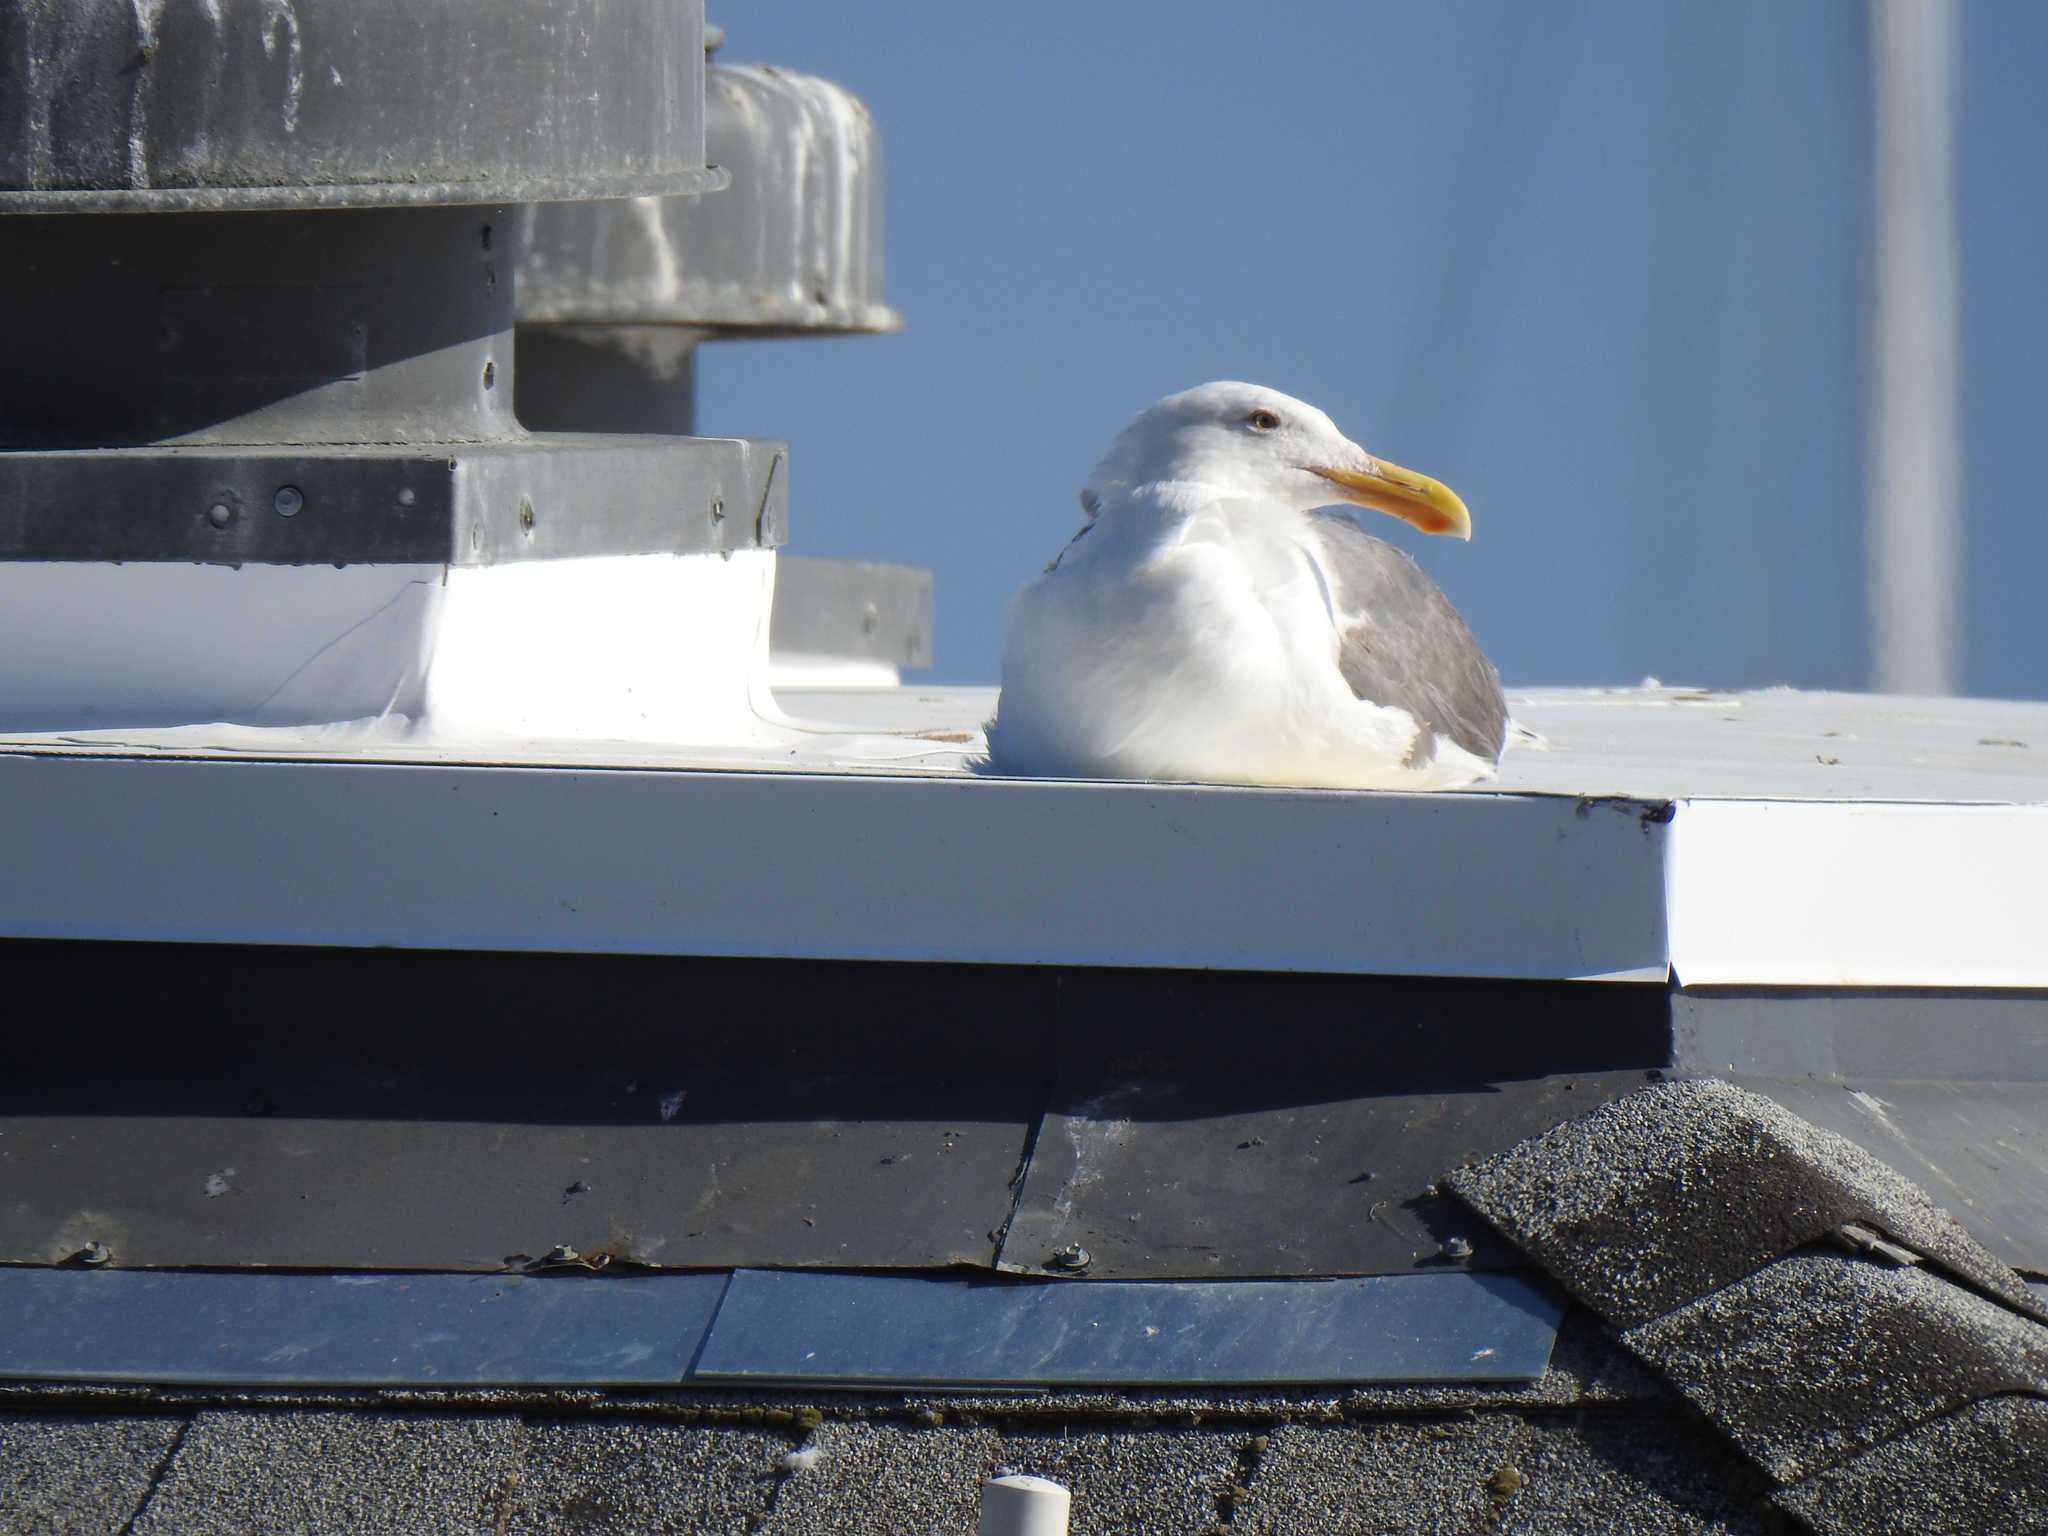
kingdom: Animalia
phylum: Chordata
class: Aves
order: Charadriiformes
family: Laridae
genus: Larus
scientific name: Larus occidentalis
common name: Western gull
